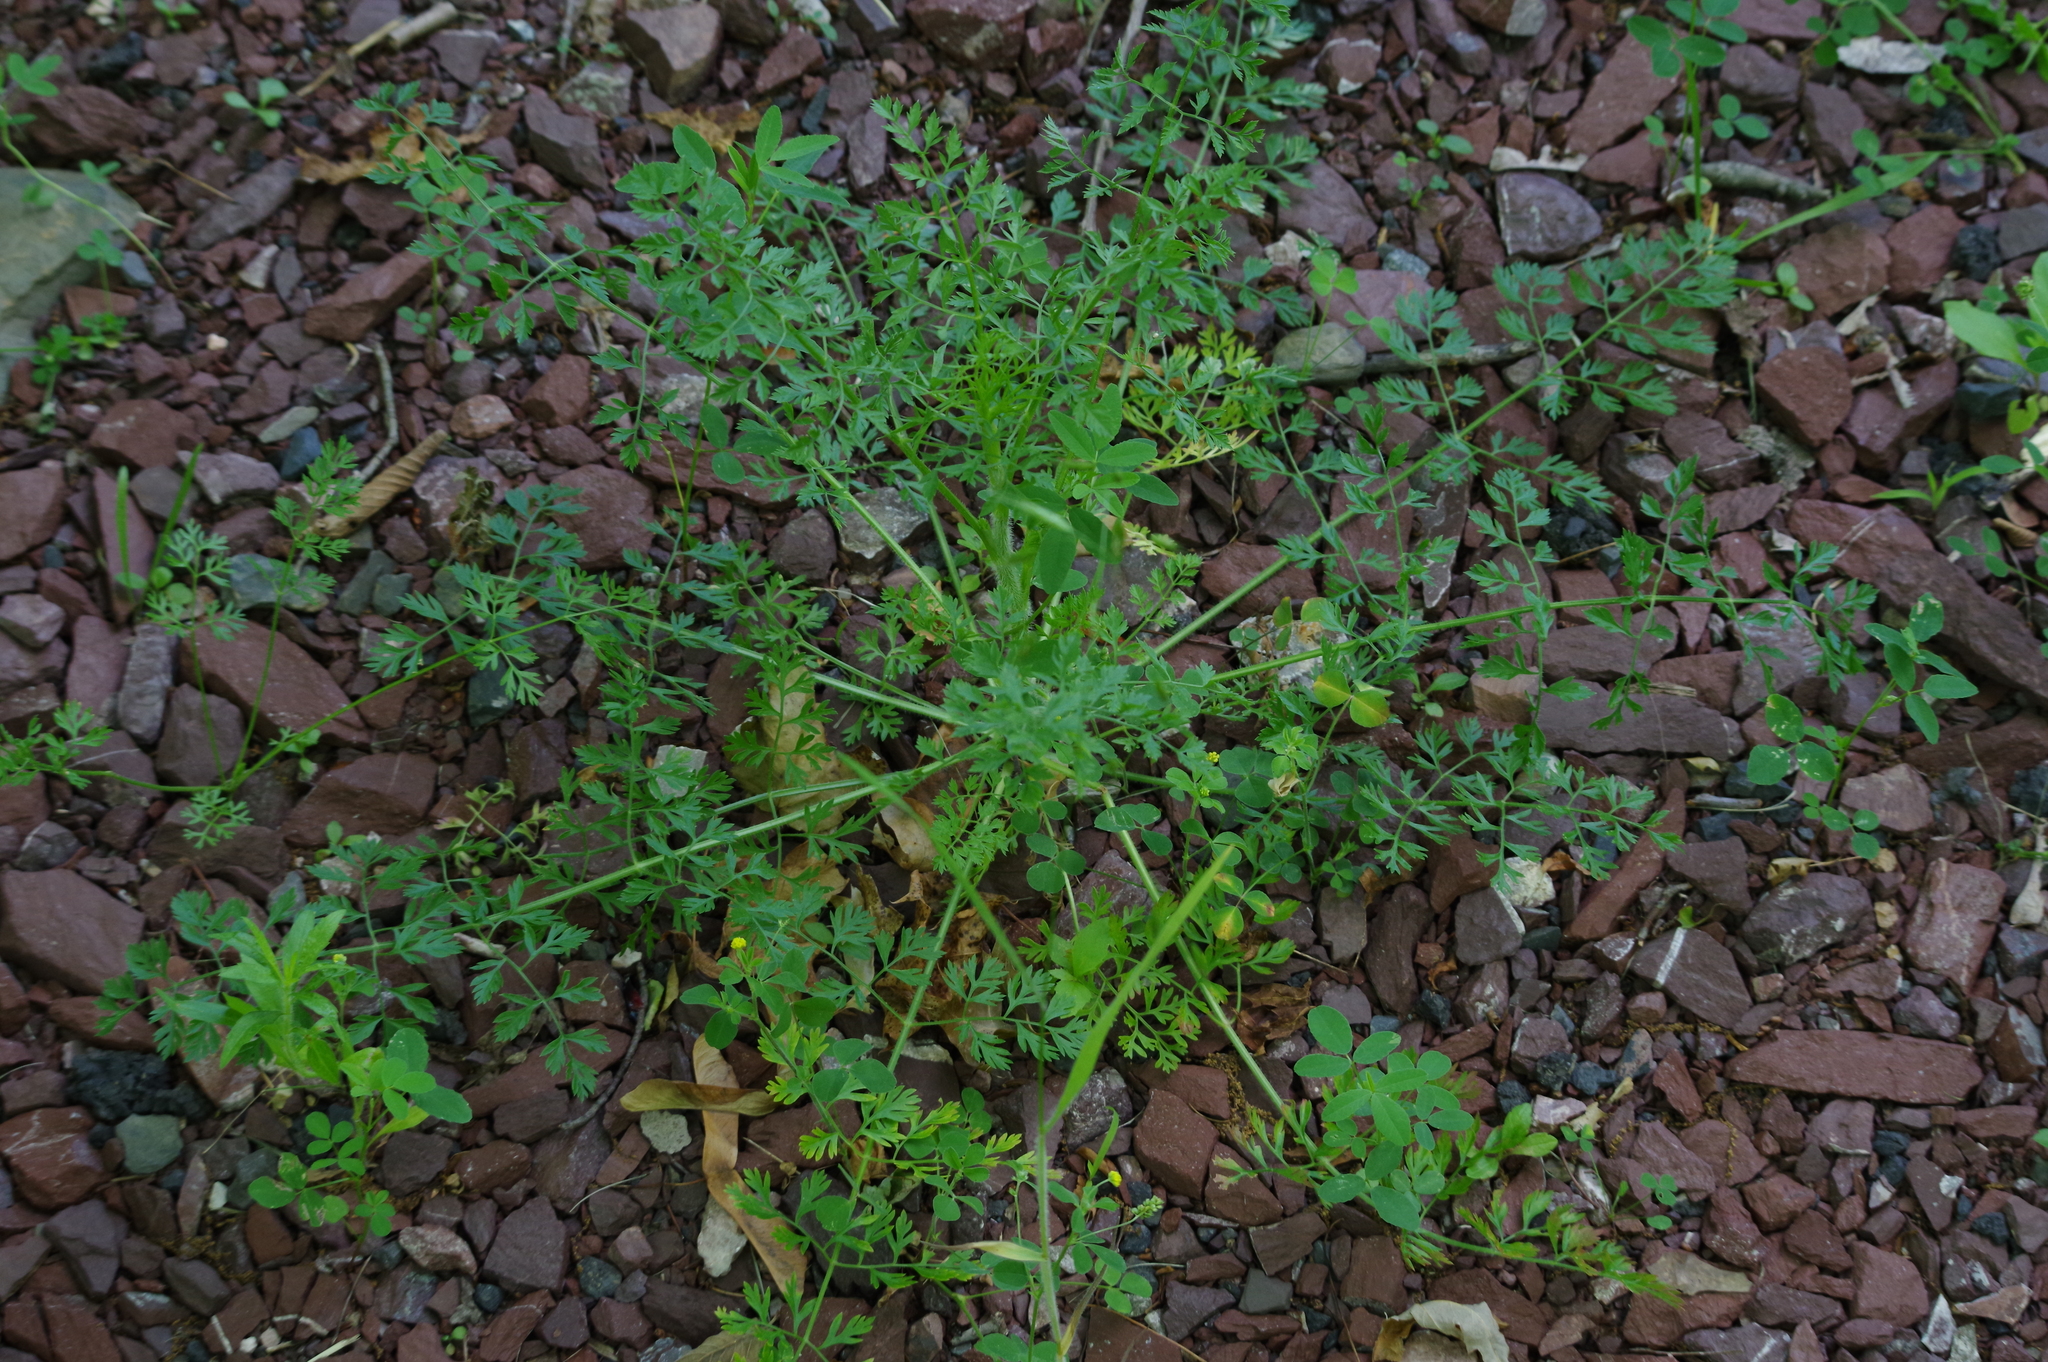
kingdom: Plantae
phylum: Tracheophyta
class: Magnoliopsida
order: Apiales
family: Apiaceae
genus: Daucus
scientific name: Daucus carota
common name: Wild carrot
